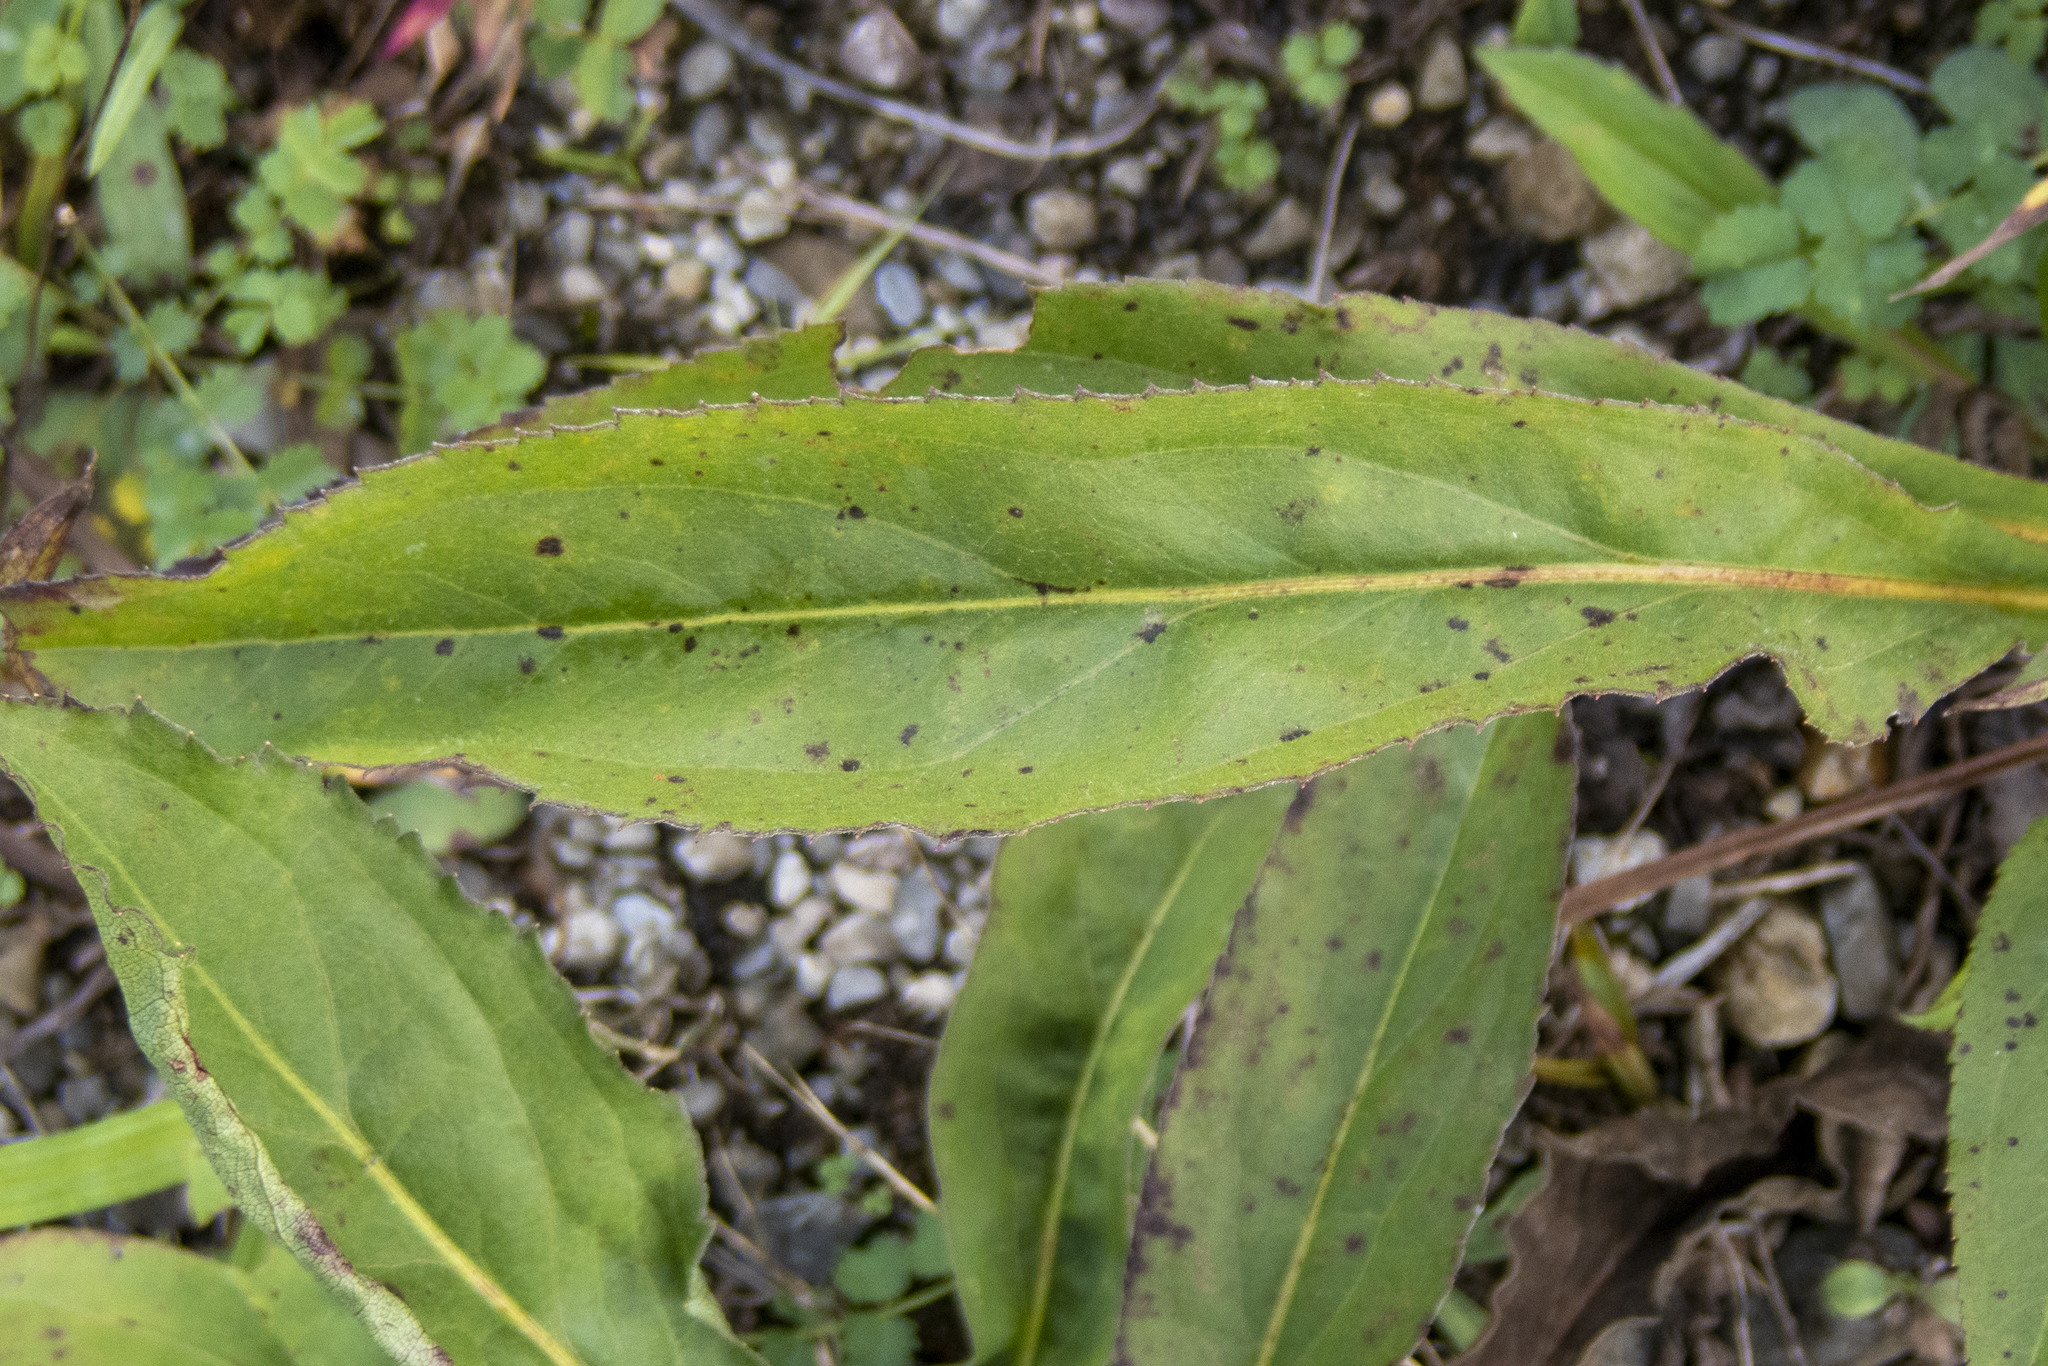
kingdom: Plantae
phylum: Tracheophyta
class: Magnoliopsida
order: Asterales
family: Asteraceae
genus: Solidago
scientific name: Solidago juncea
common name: Early goldenrod
